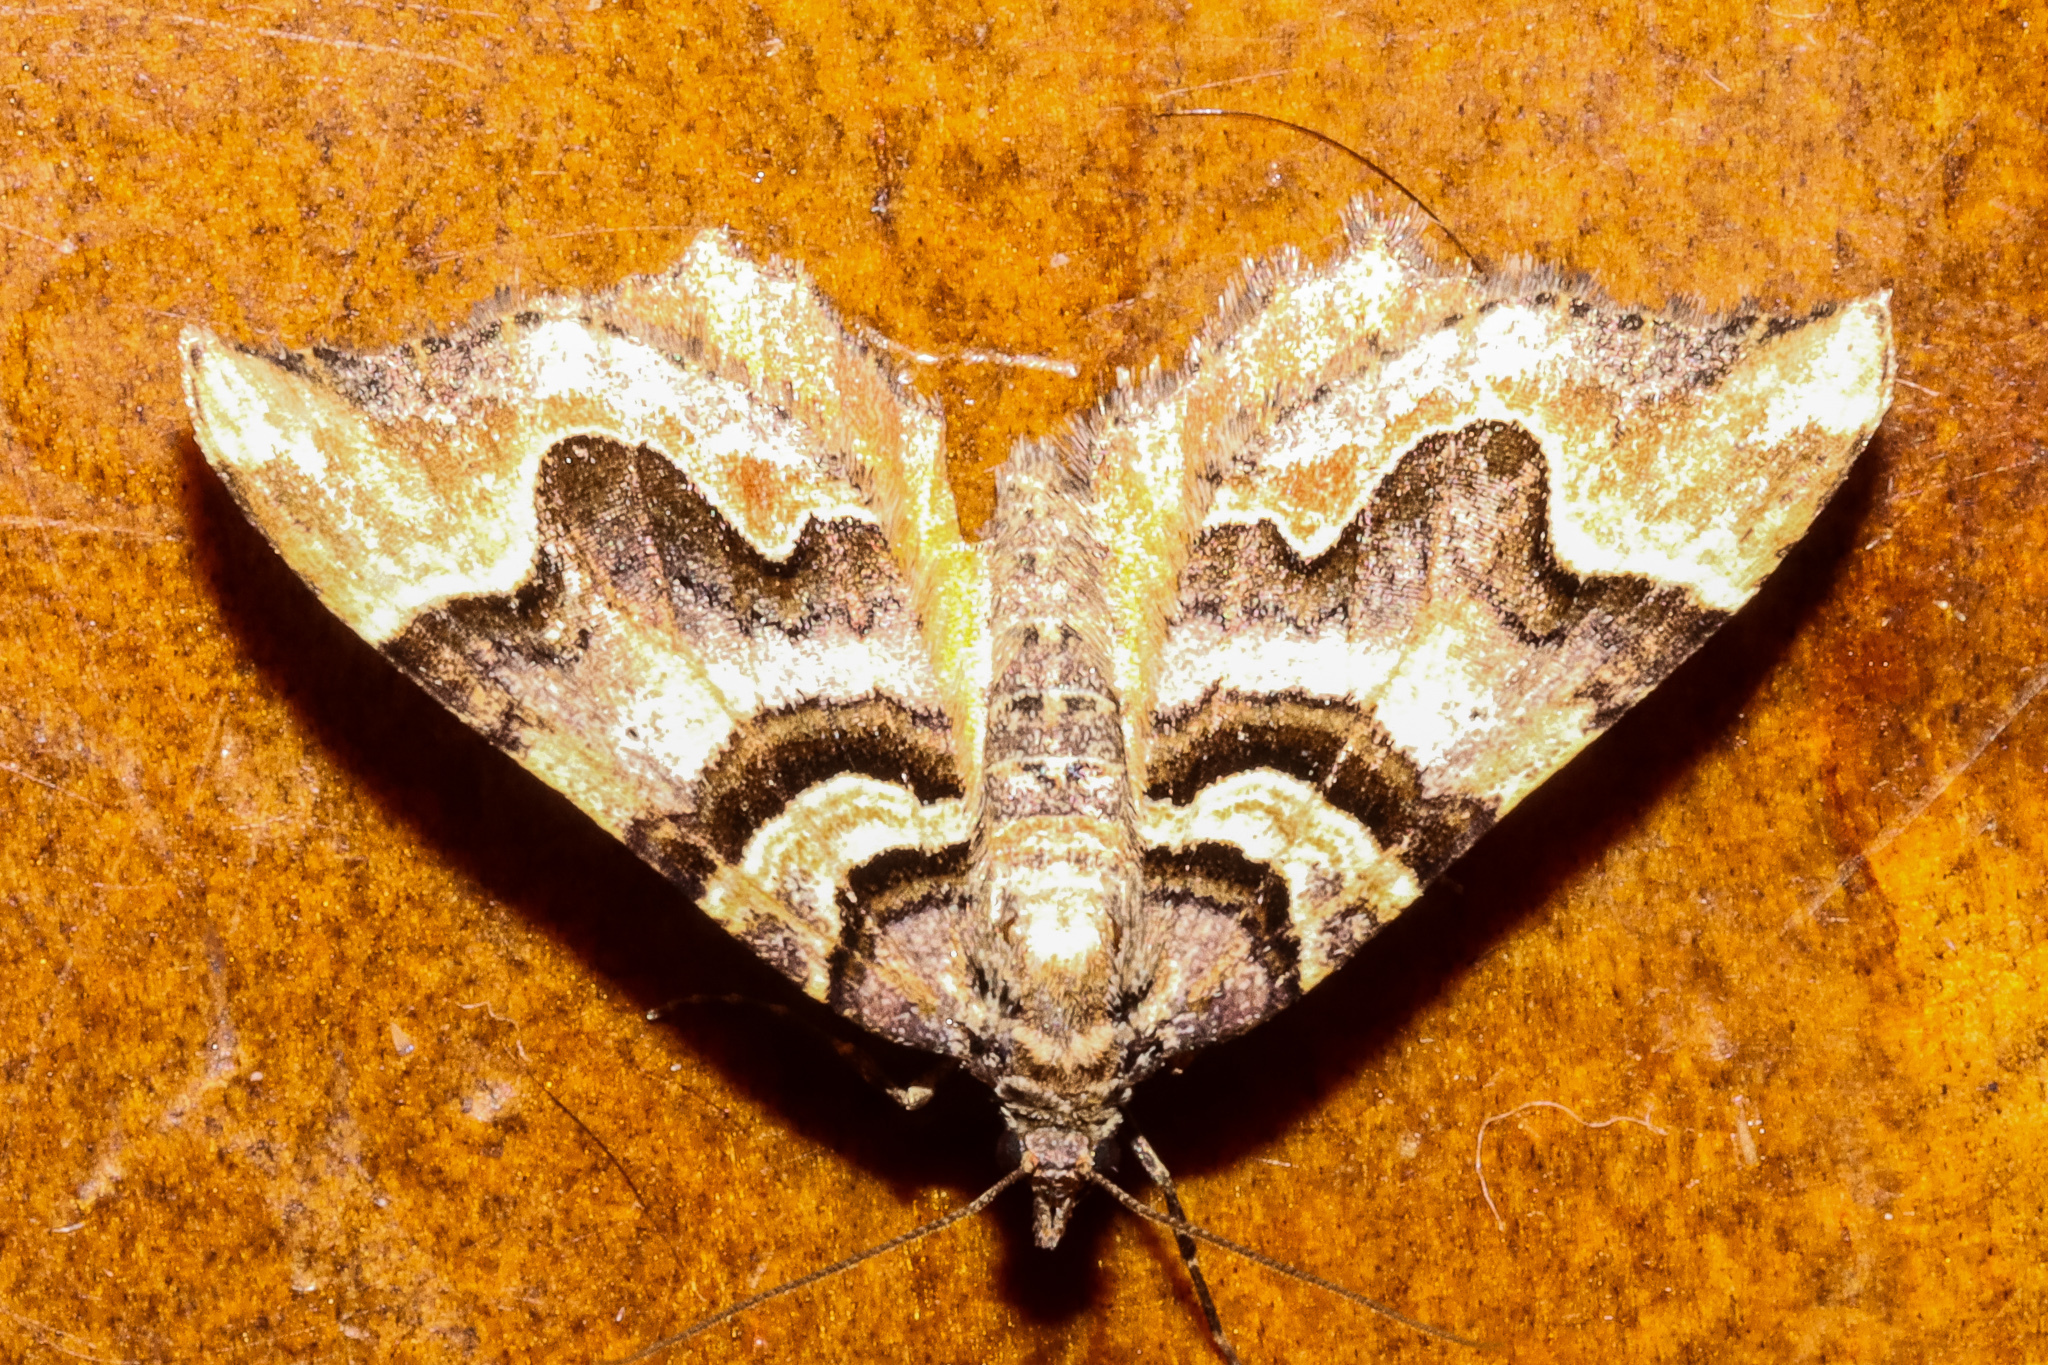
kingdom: Animalia
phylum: Arthropoda
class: Insecta
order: Lepidoptera
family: Geometridae
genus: Asaphodes
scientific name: Asaphodes chlamydota
